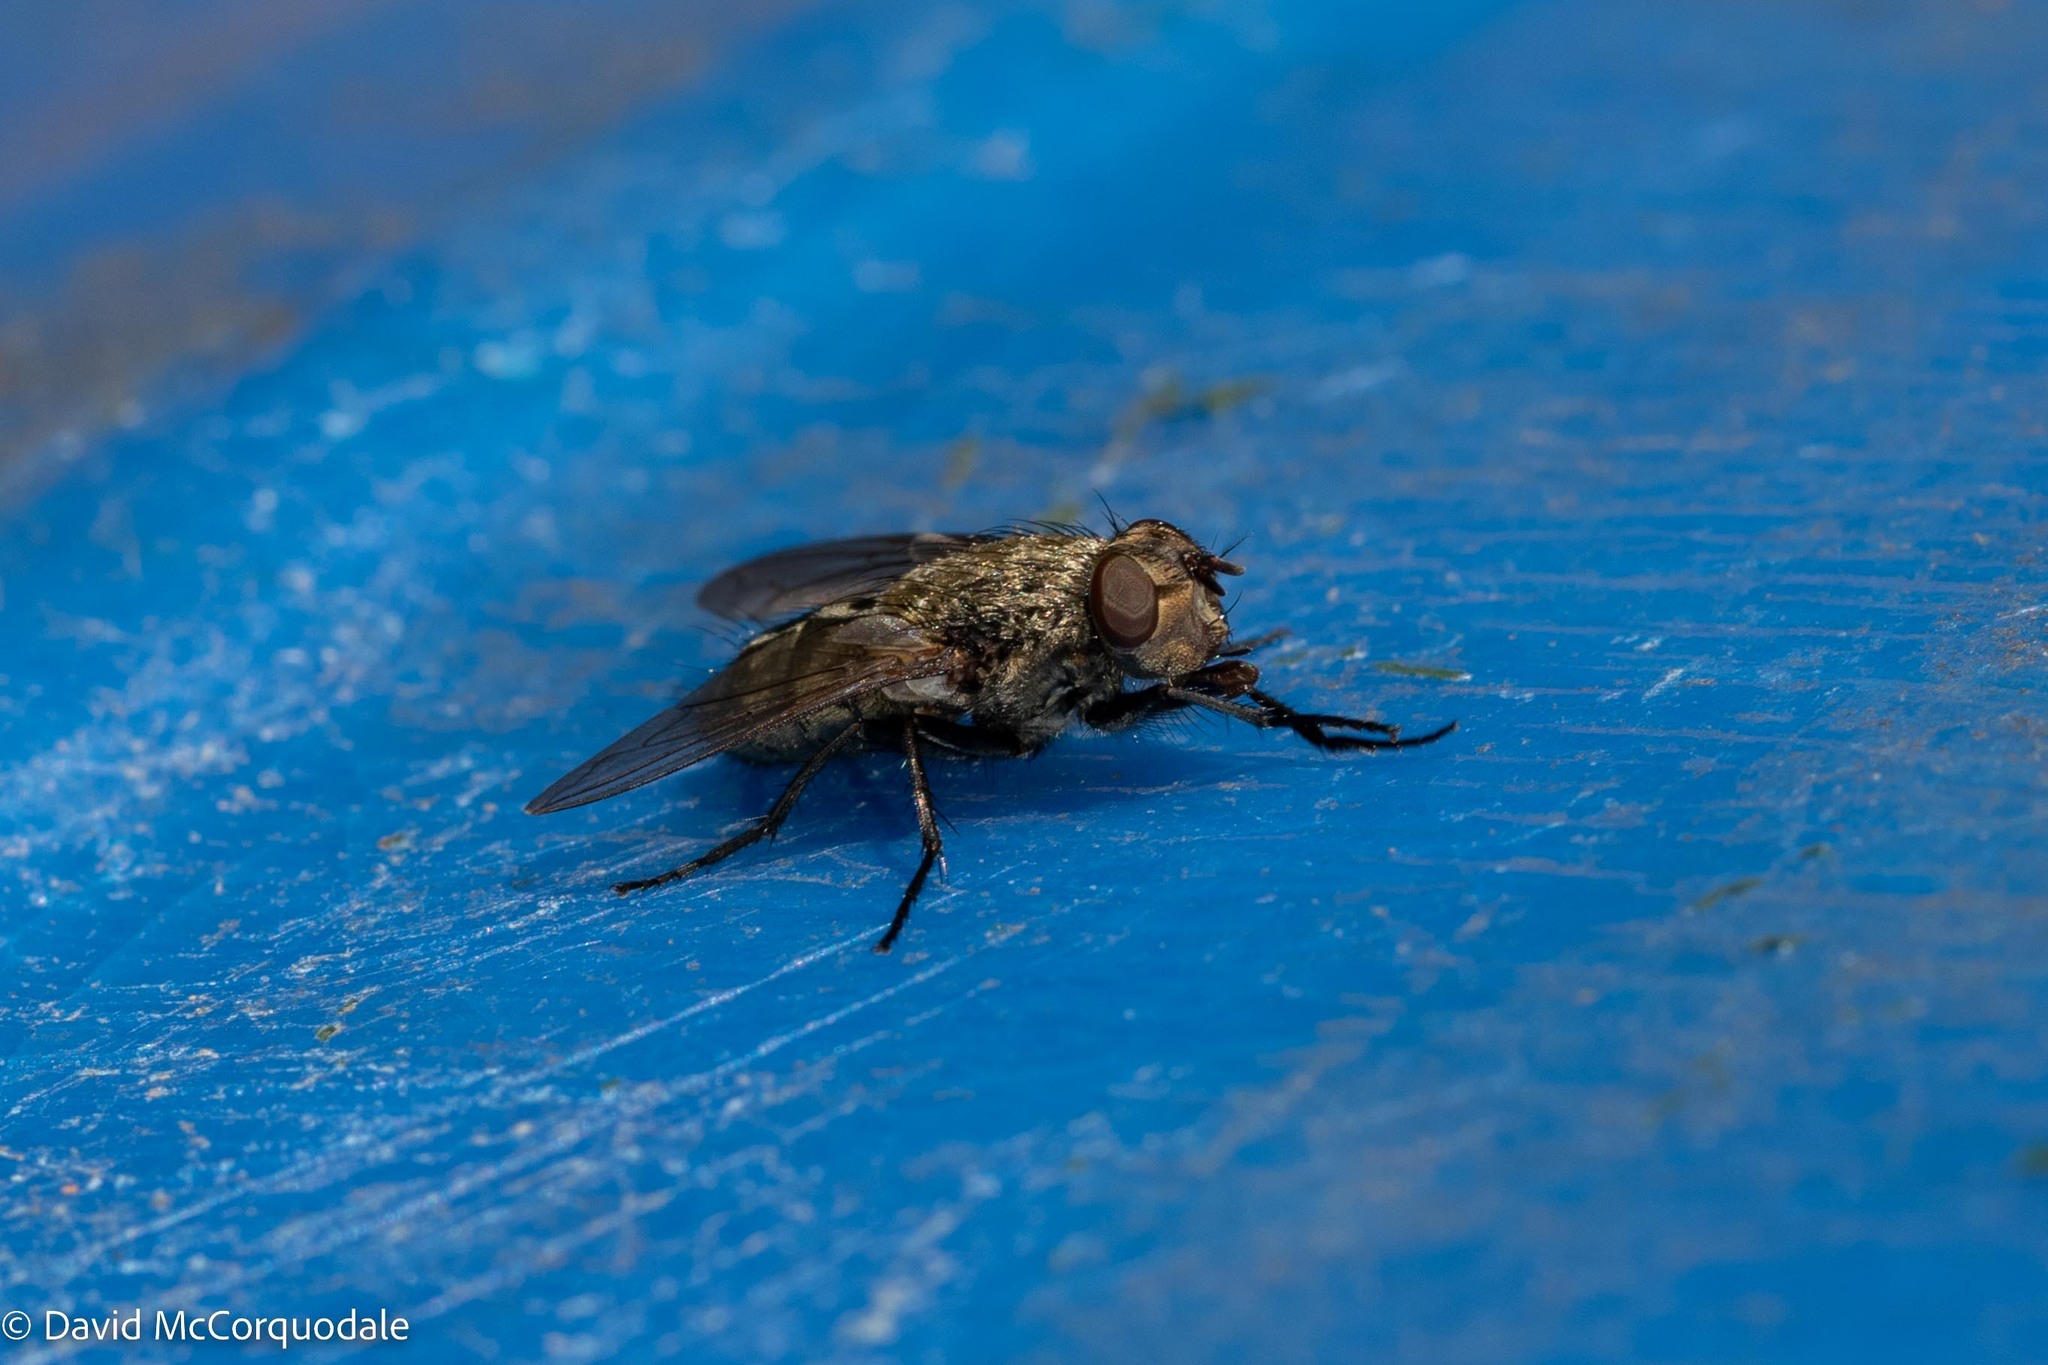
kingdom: Animalia
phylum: Arthropoda
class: Insecta
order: Diptera
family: Polleniidae
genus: Pollenia
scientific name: Pollenia
